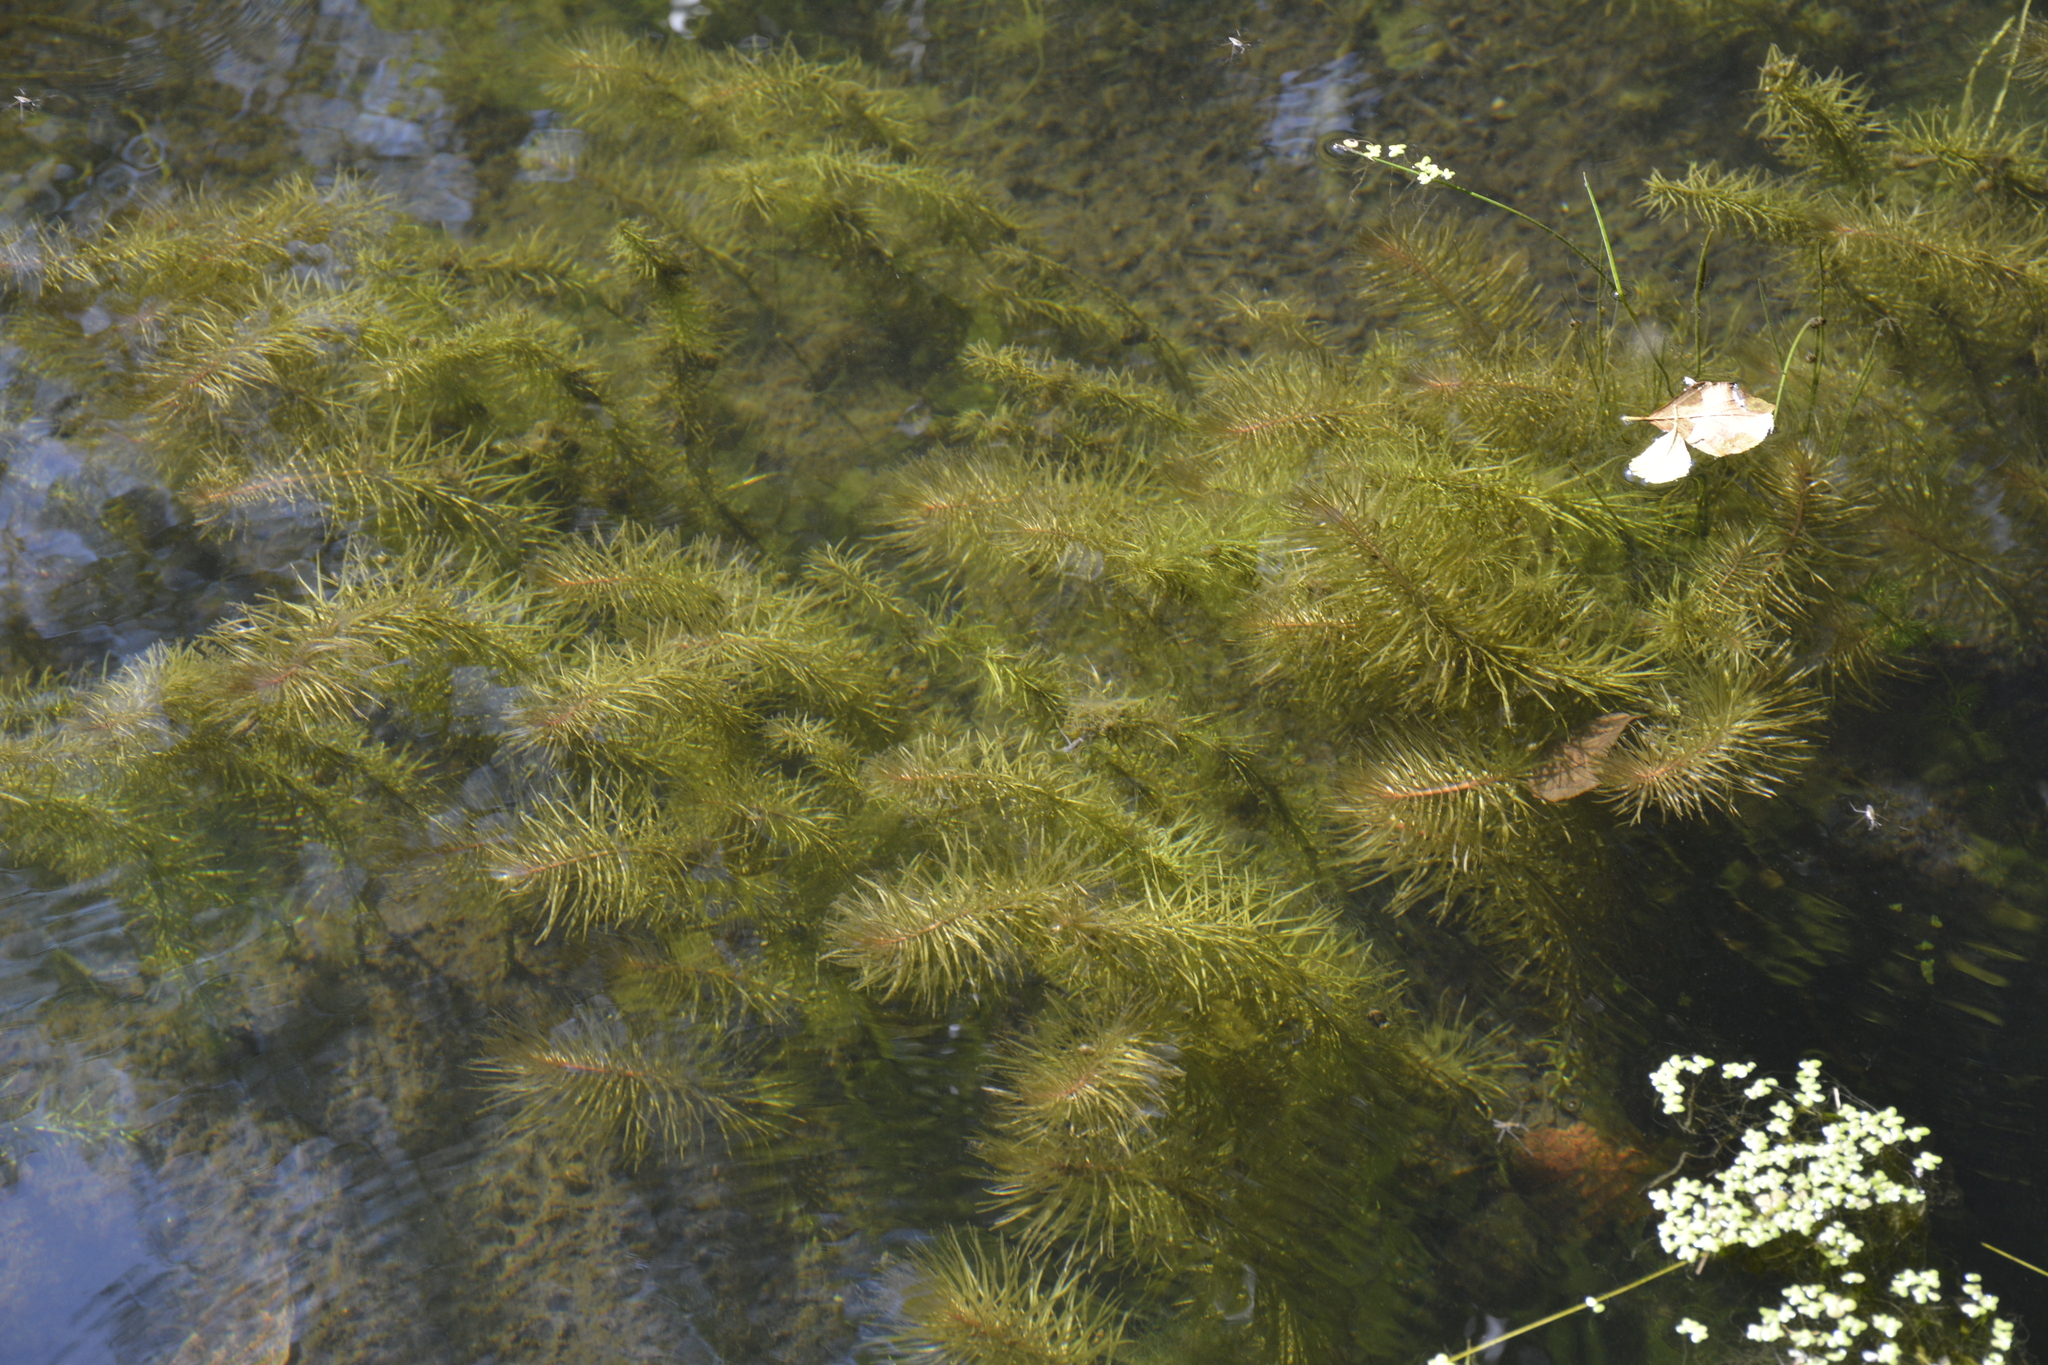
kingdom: Plantae
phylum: Tracheophyta
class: Magnoliopsida
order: Lamiales
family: Plantaginaceae
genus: Hippuris
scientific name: Hippuris vulgaris
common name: Mare's-tail
